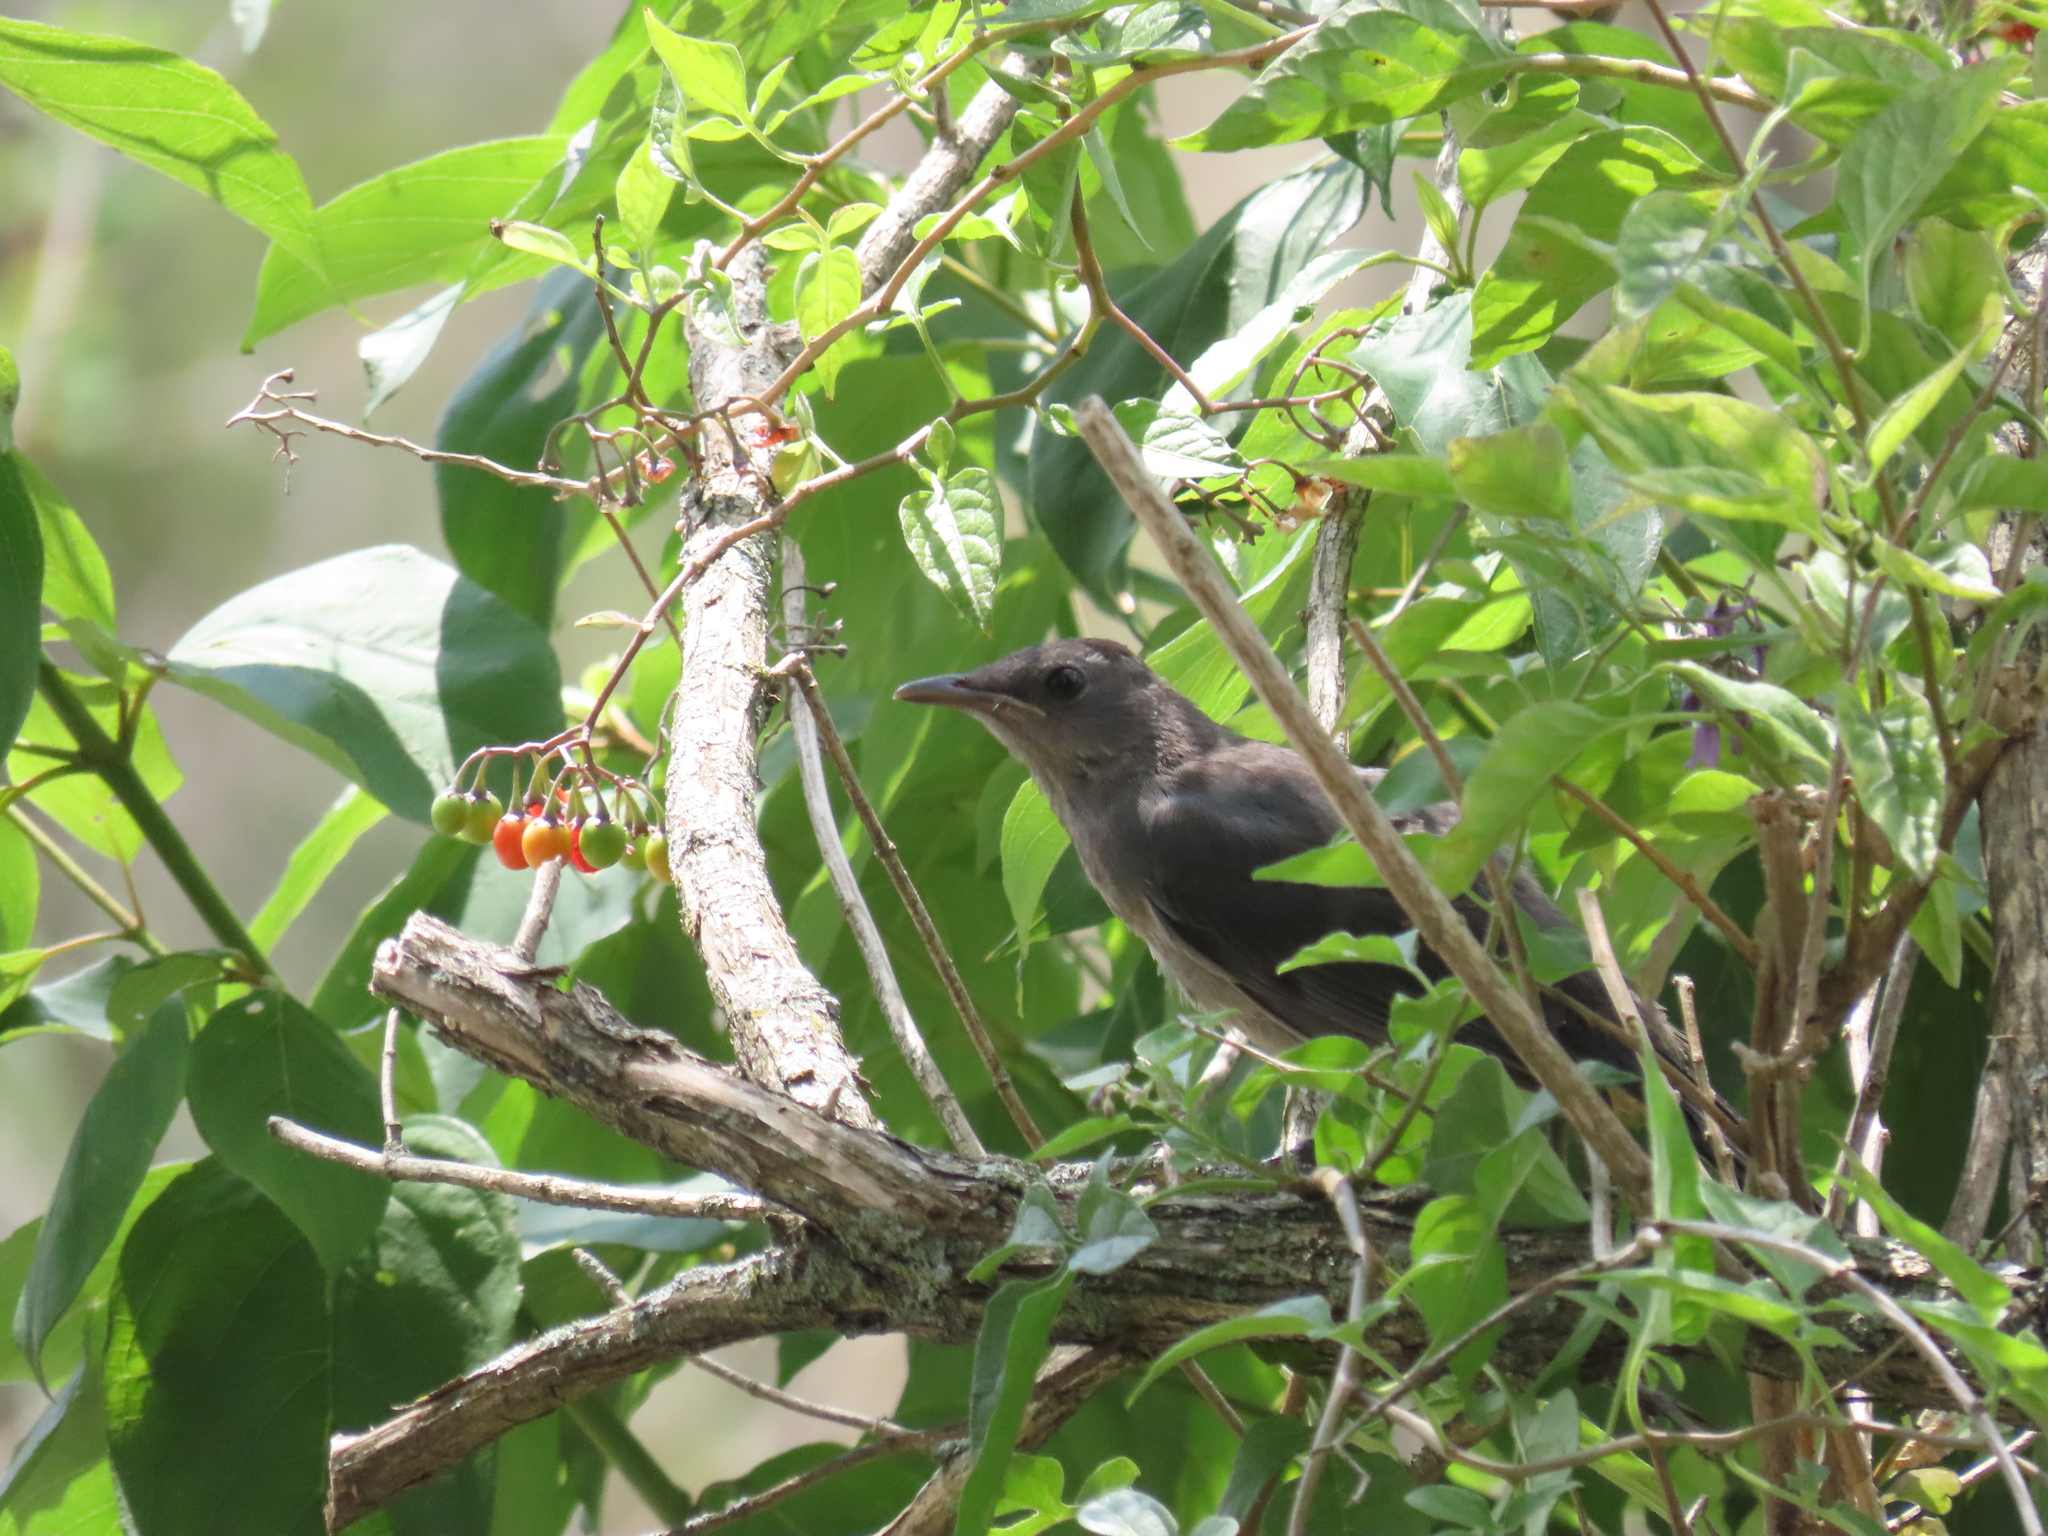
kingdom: Animalia
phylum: Chordata
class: Aves
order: Passeriformes
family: Mimidae
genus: Dumetella
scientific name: Dumetella carolinensis
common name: Gray catbird
